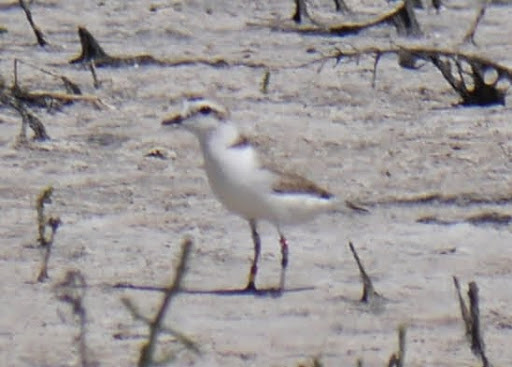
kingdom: Animalia
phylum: Chordata
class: Aves
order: Charadriiformes
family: Charadriidae
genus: Anarhynchus
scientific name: Anarhynchus
